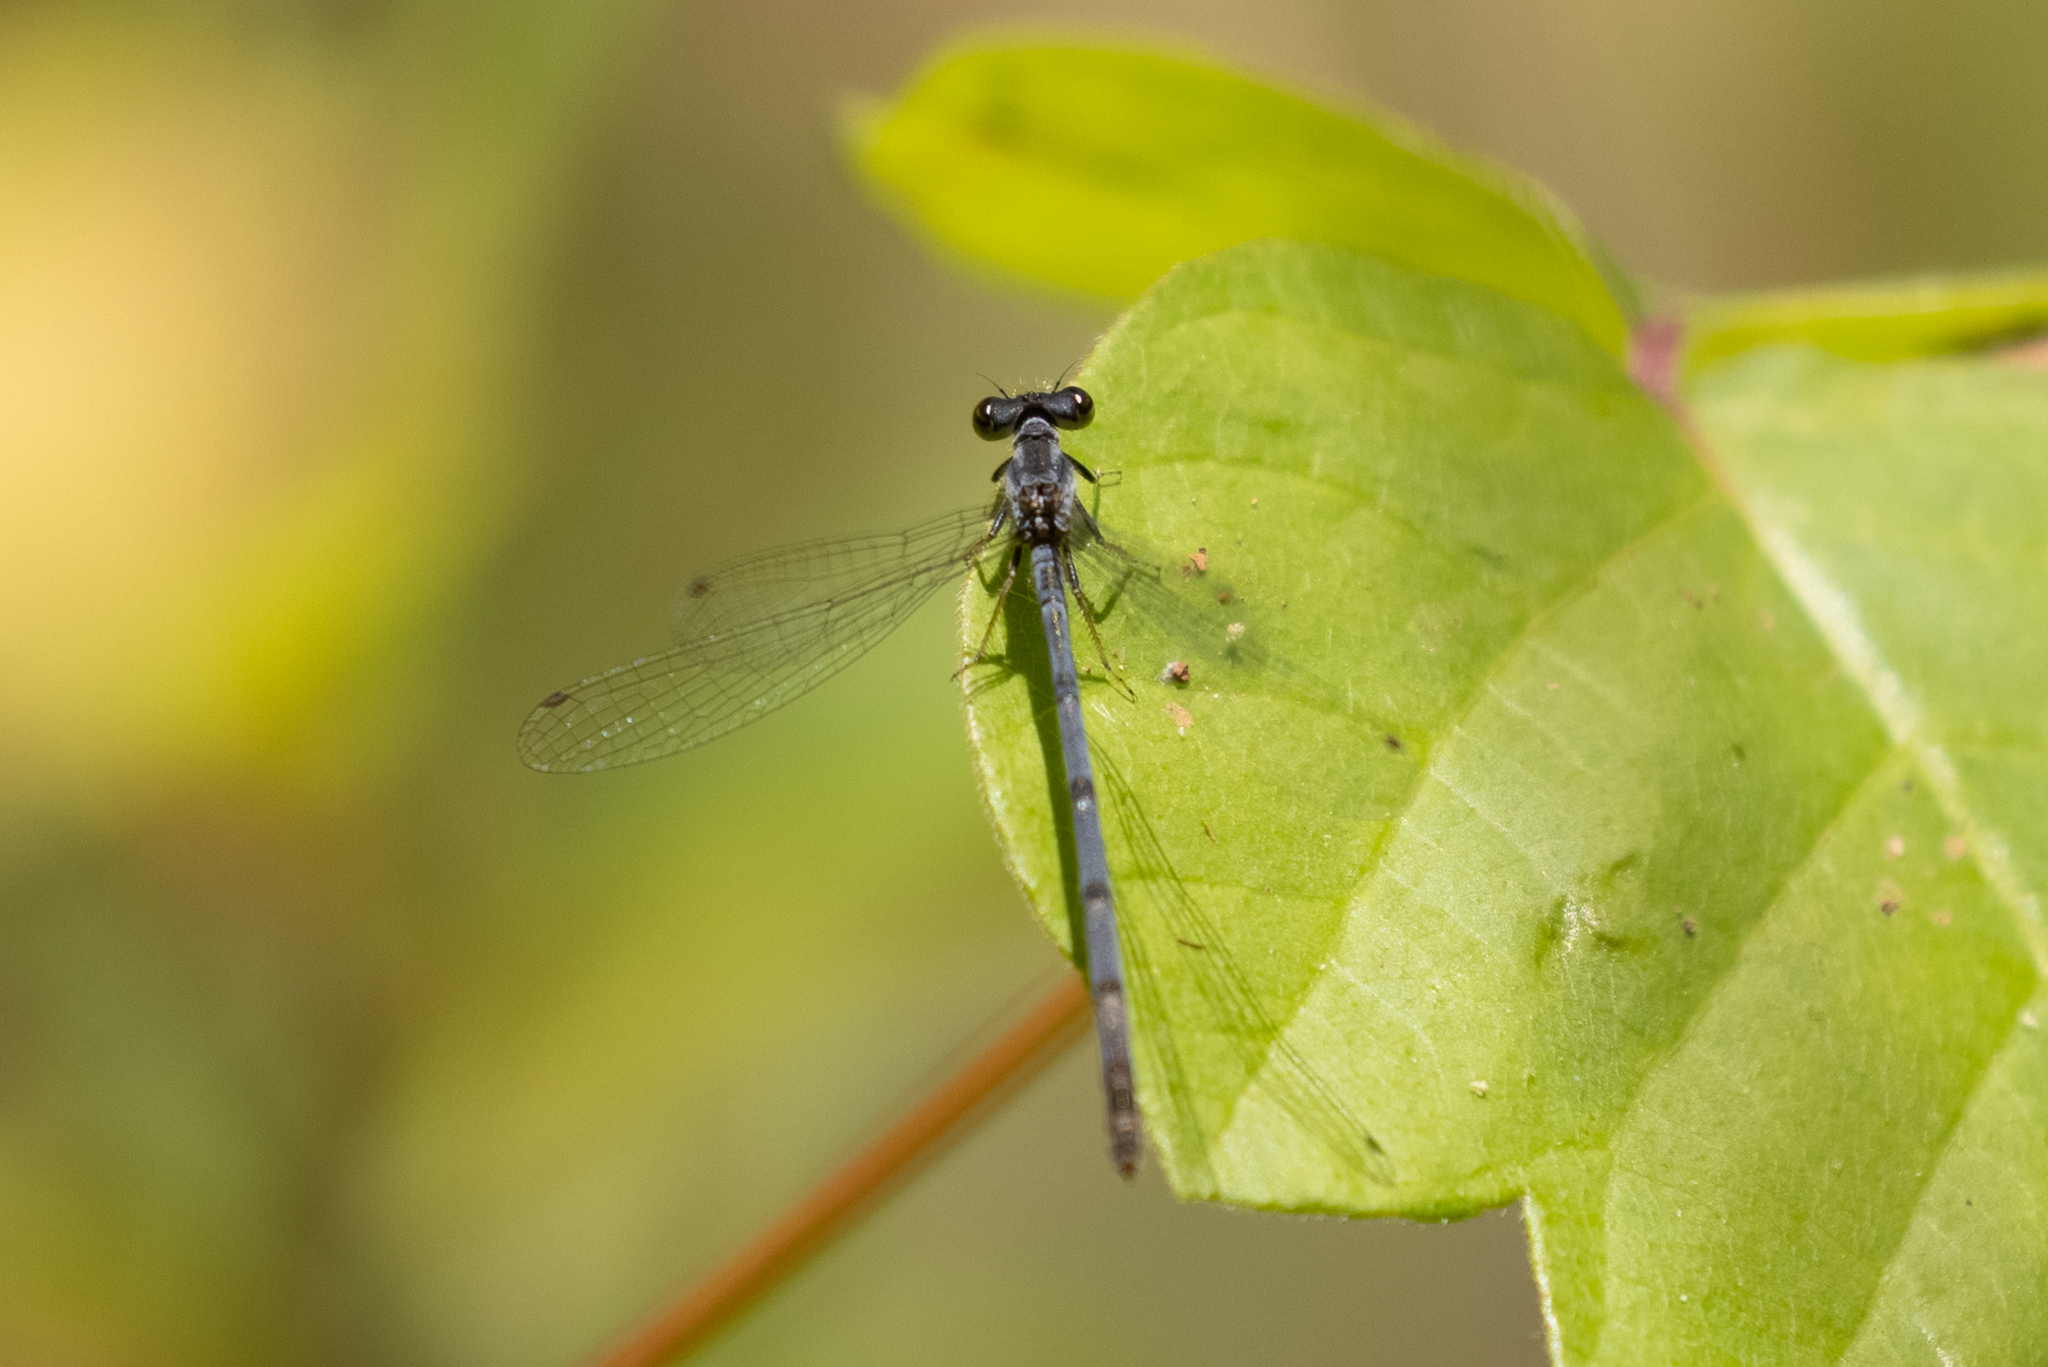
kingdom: Animalia
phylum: Arthropoda
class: Insecta
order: Odonata
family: Coenagrionidae
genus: Ischnura
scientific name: Ischnura posita
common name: Fragile forktail
